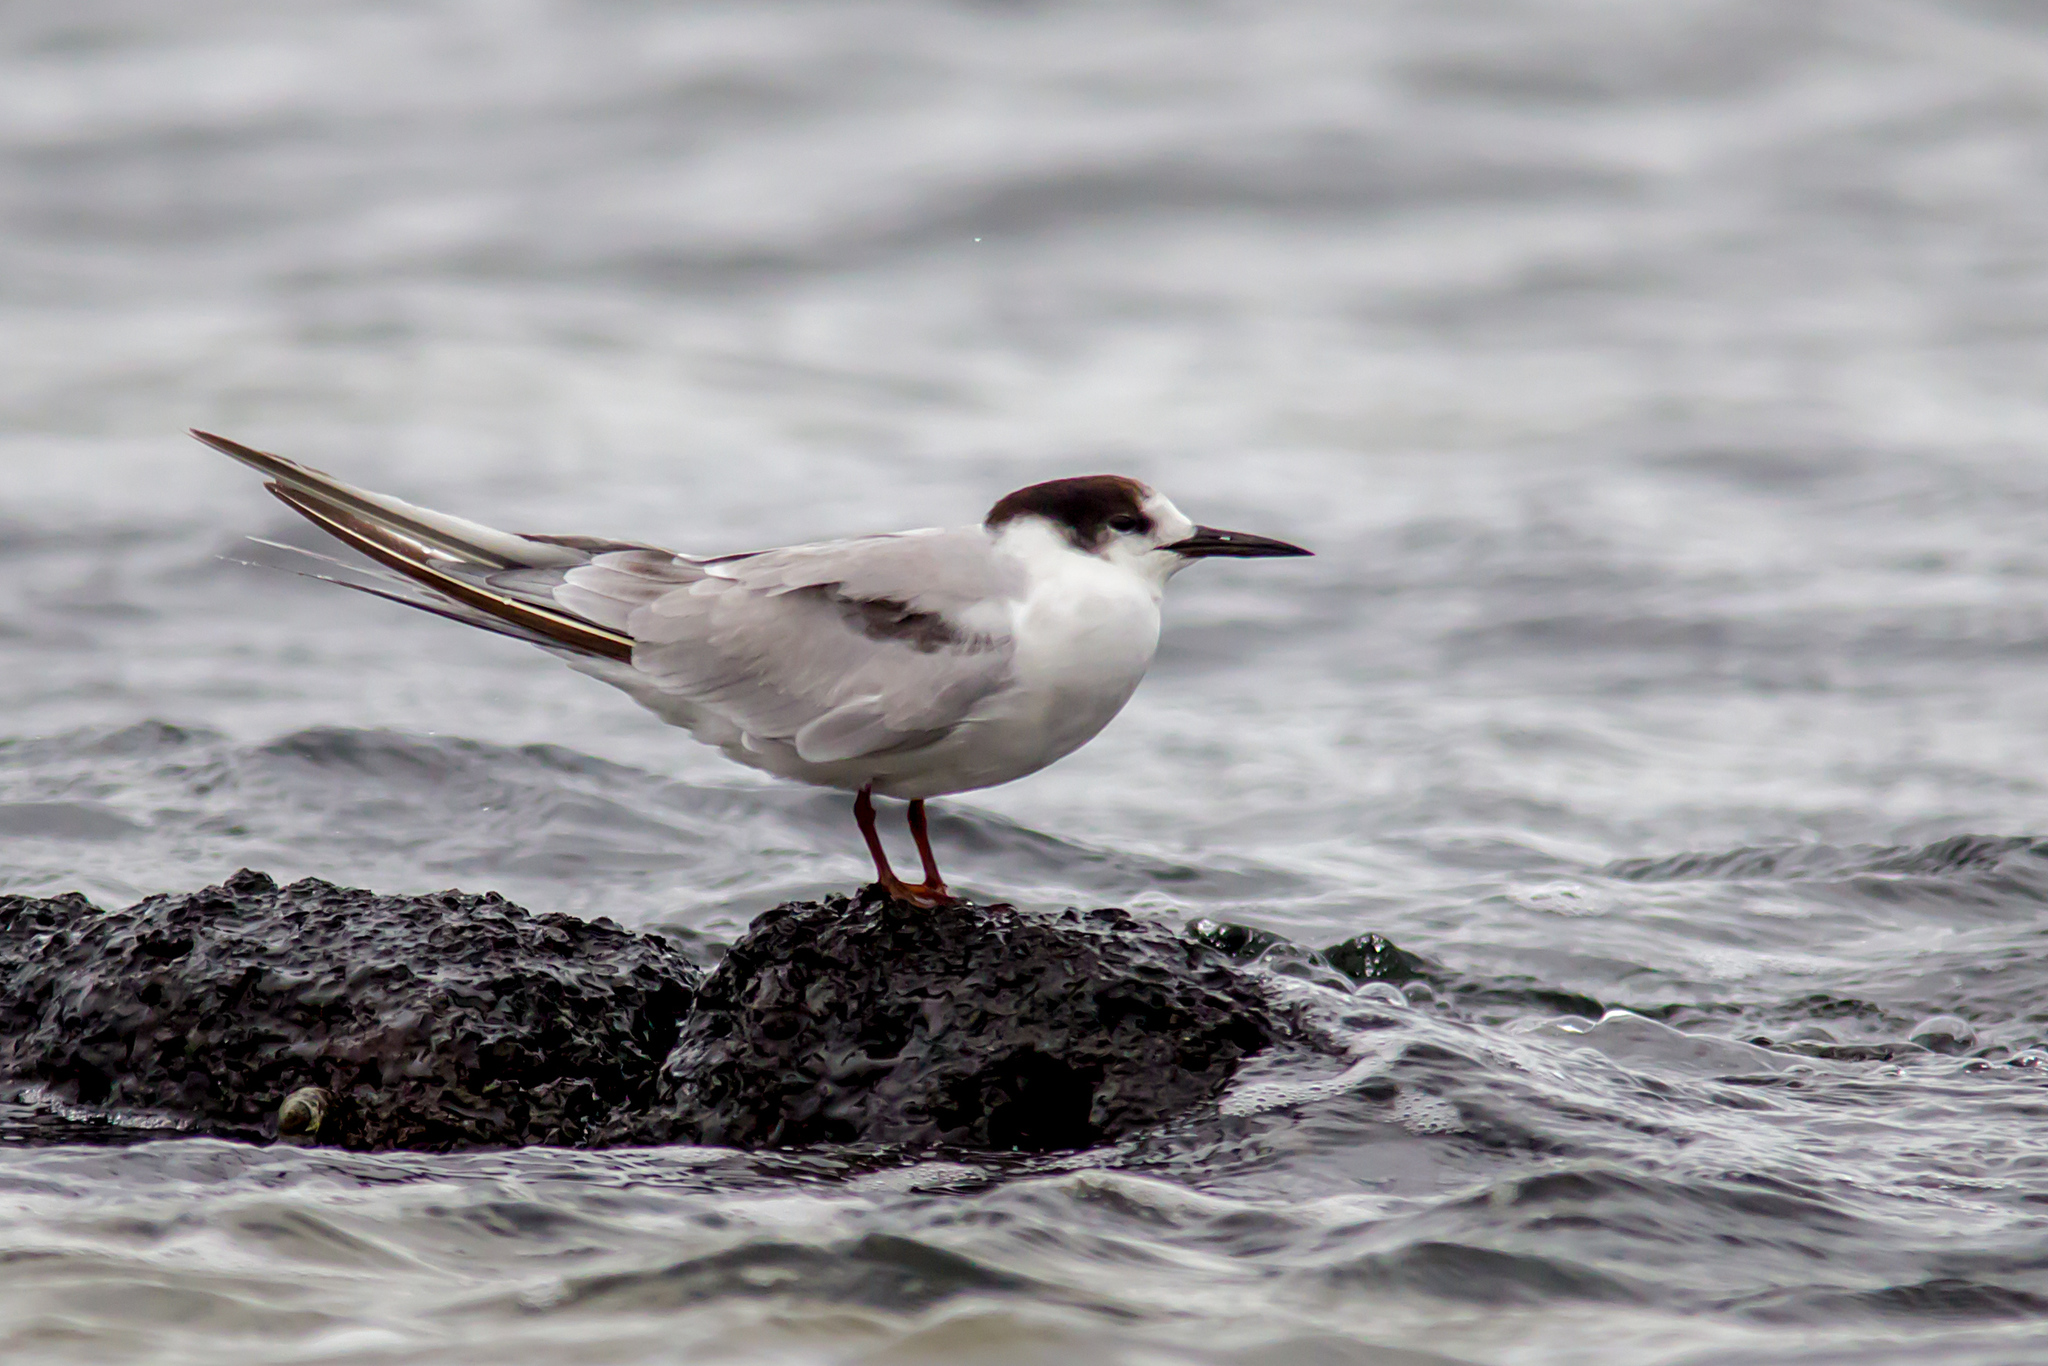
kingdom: Animalia
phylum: Chordata
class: Aves
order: Charadriiformes
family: Laridae
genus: Sterna
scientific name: Sterna hirundo
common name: Common tern
